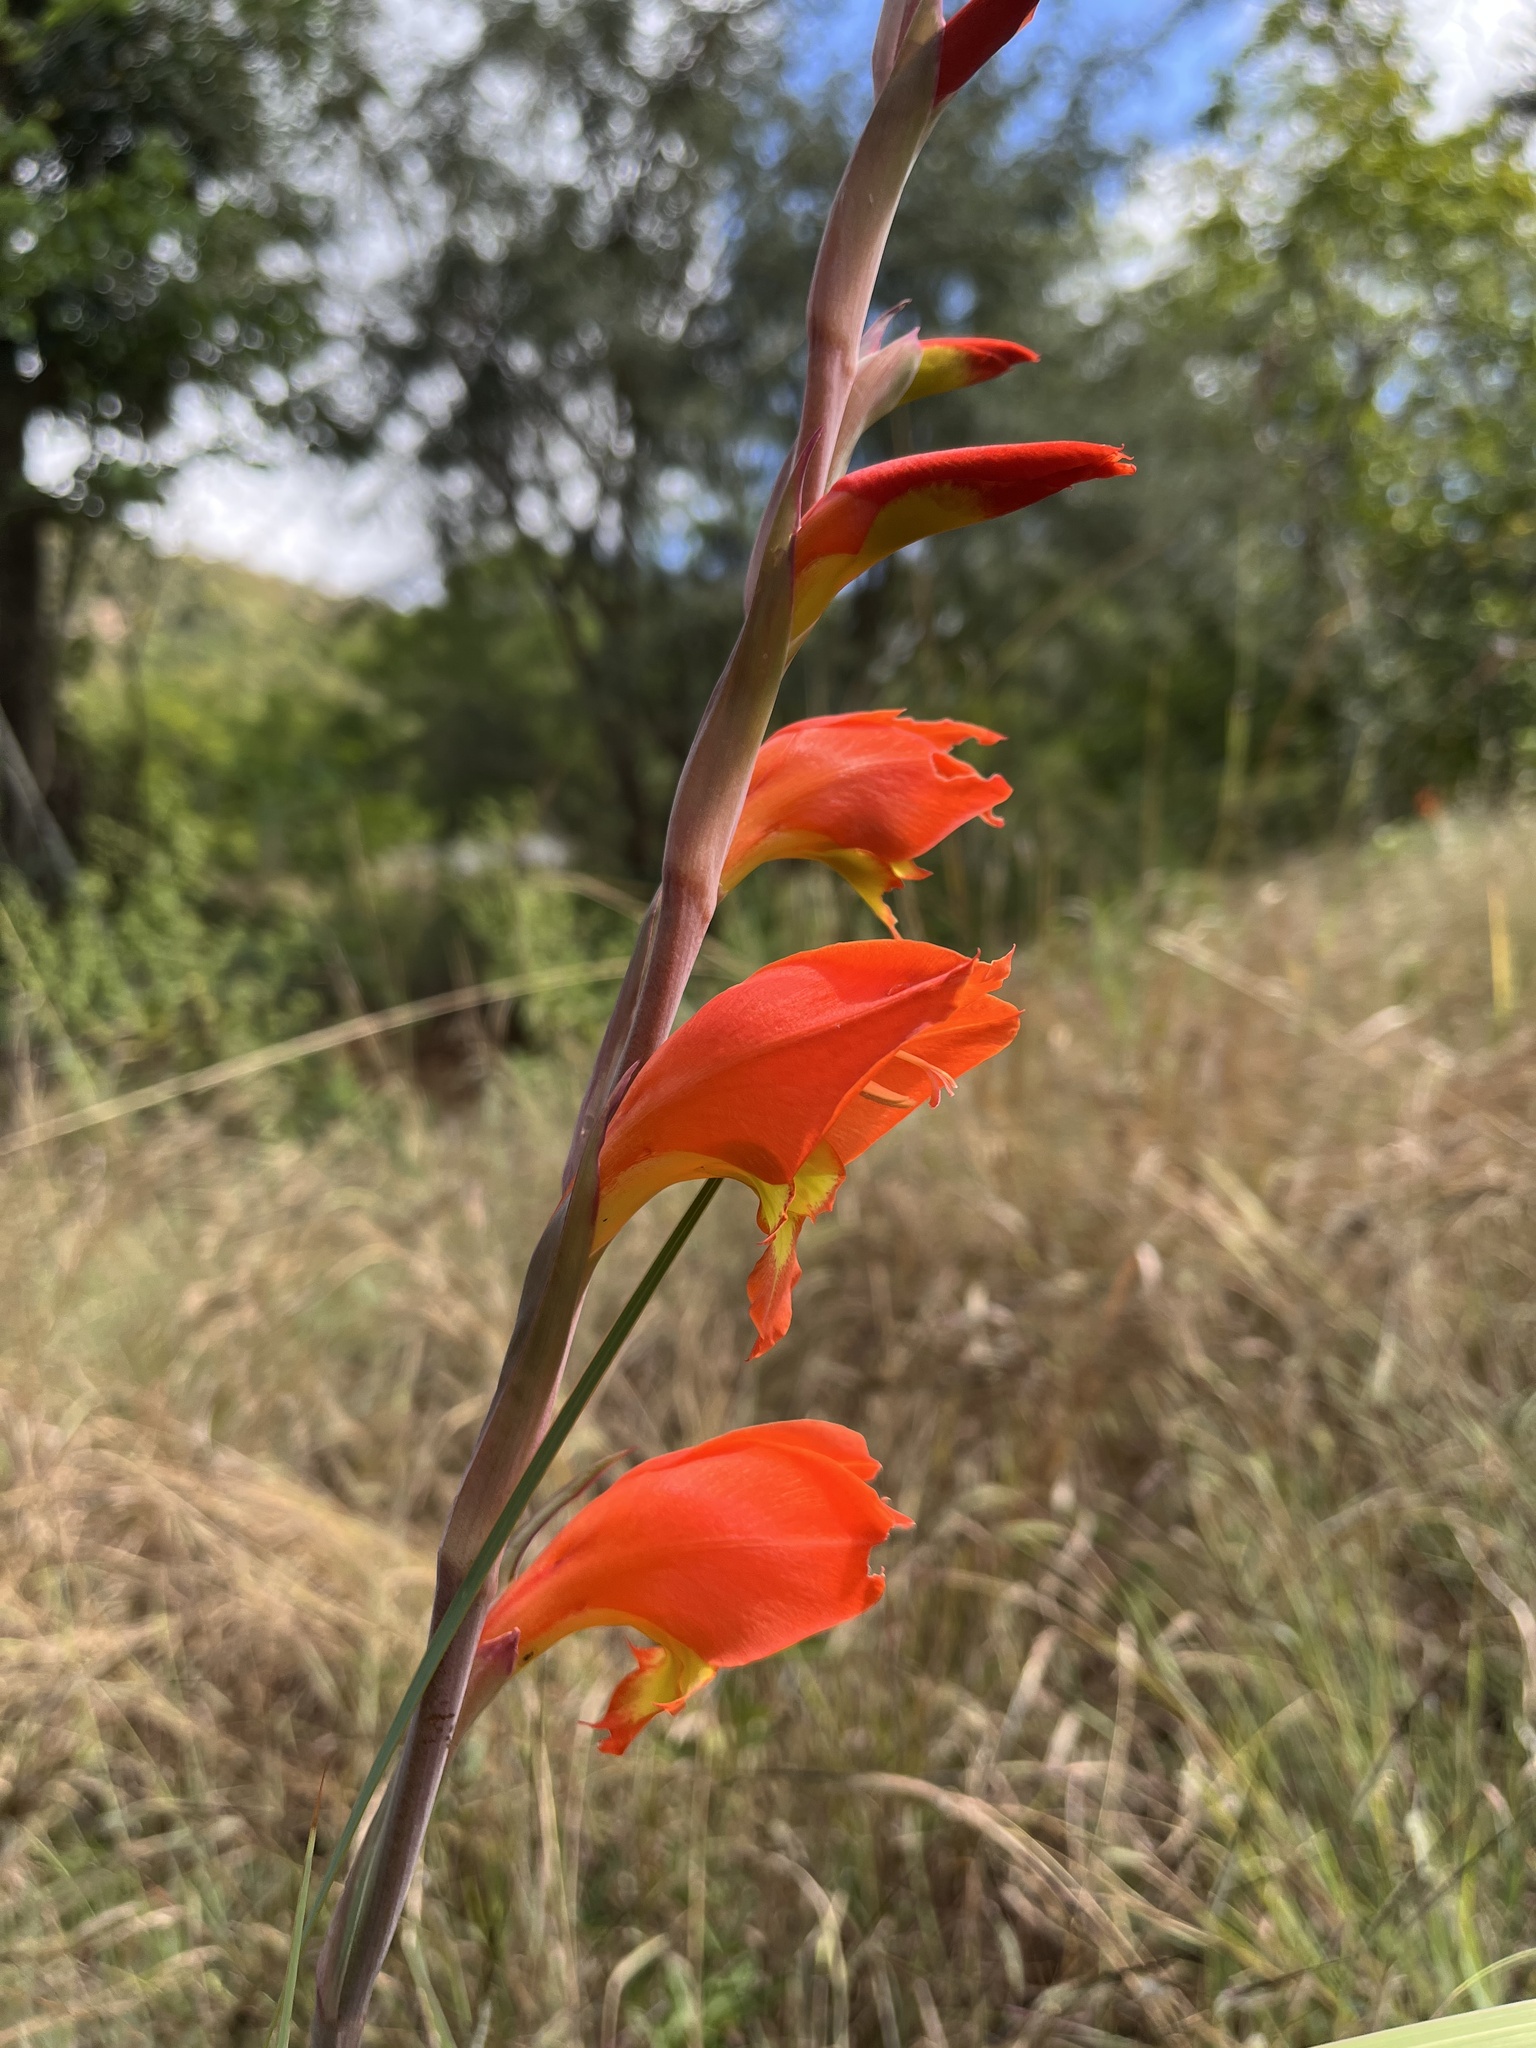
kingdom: Plantae
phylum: Tracheophyta
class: Liliopsida
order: Asparagales
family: Iridaceae
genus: Gladiolus
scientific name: Gladiolus dalenii
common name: Cornflag
